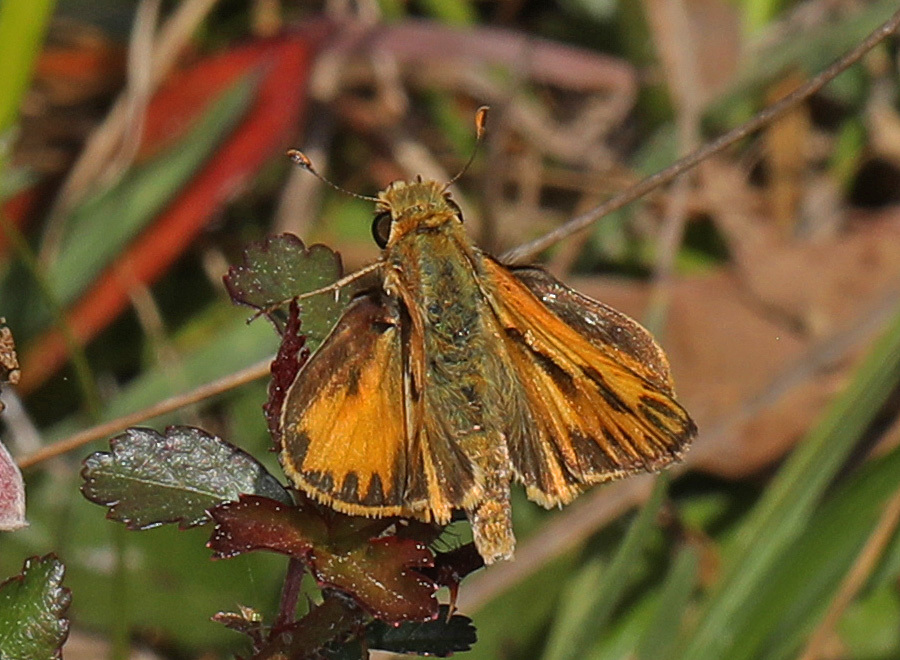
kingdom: Animalia
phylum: Arthropoda
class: Insecta
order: Lepidoptera
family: Hesperiidae
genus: Hylephila
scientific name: Hylephila phyleus
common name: Fiery skipper
